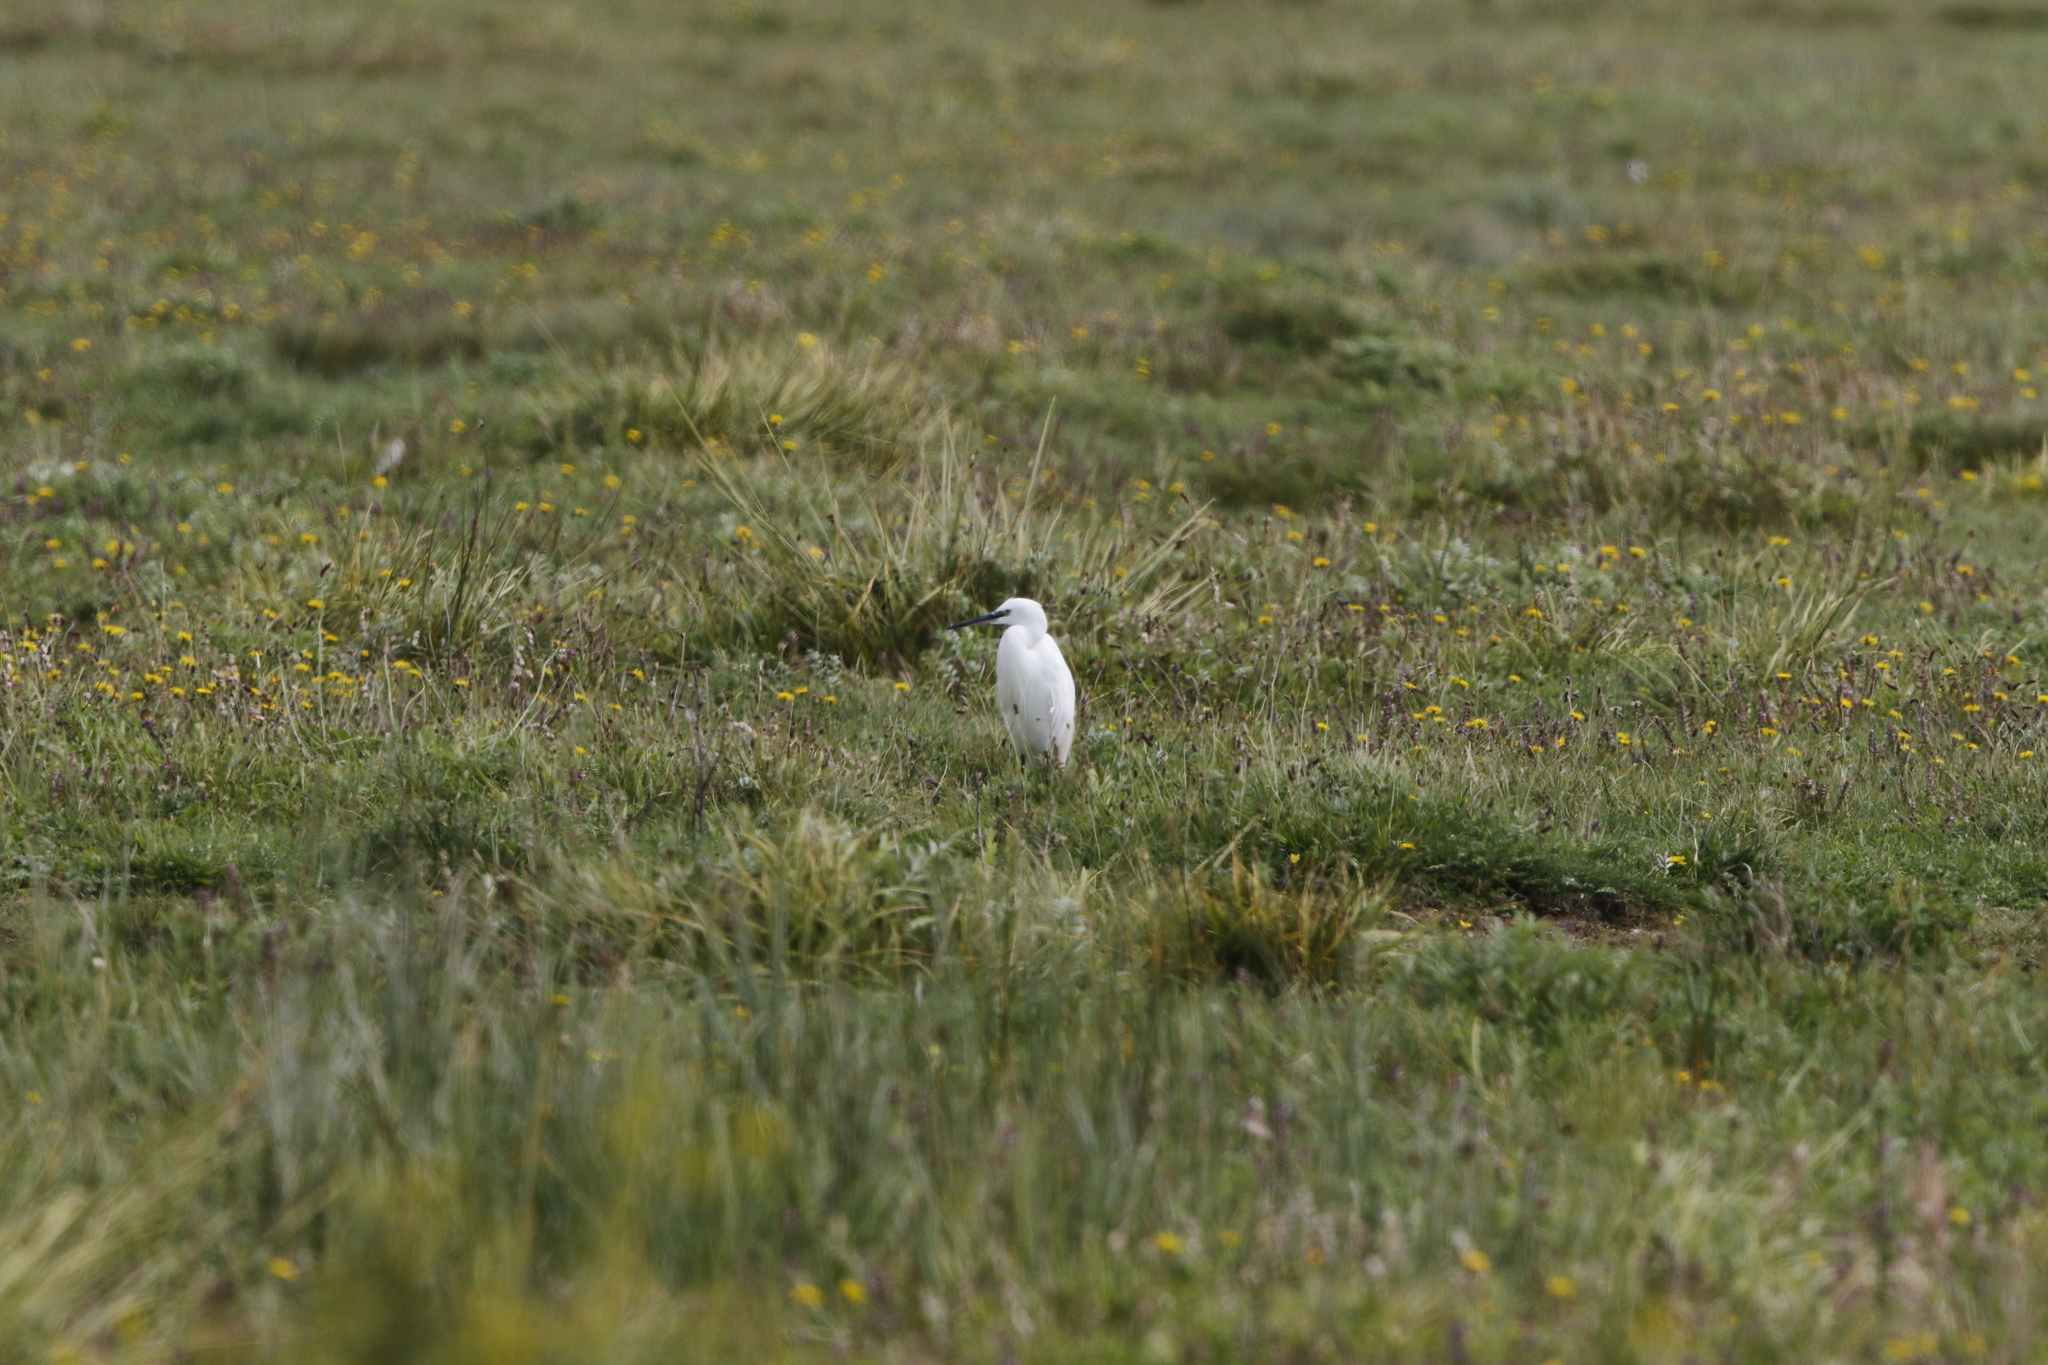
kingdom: Animalia
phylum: Chordata
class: Aves
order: Pelecaniformes
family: Ardeidae
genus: Egretta
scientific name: Egretta garzetta
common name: Little egret
